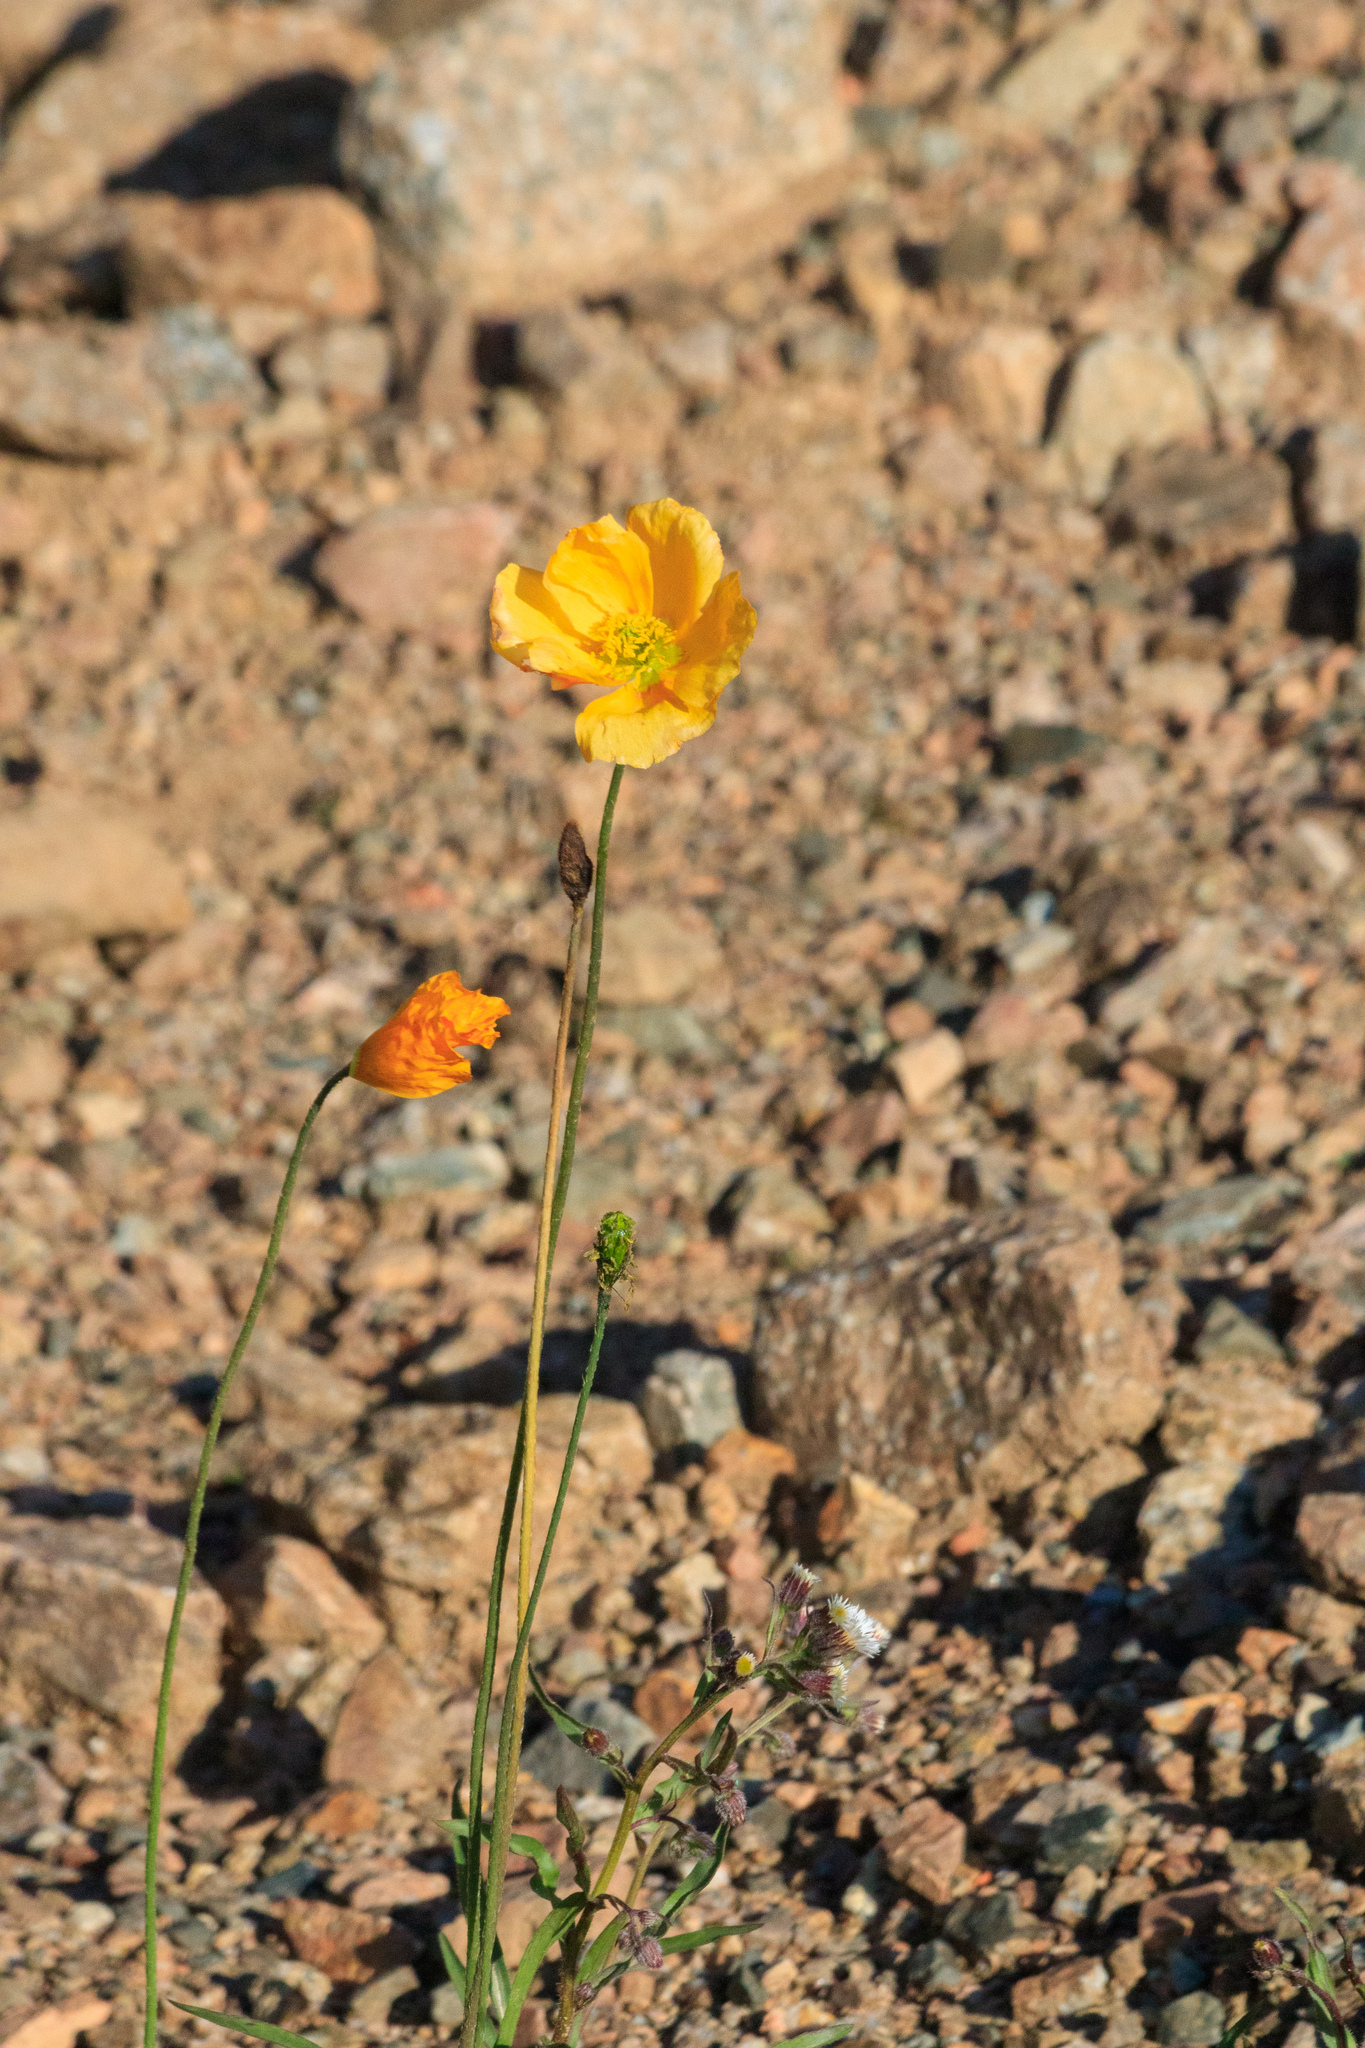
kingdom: Plantae
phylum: Tracheophyta
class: Magnoliopsida
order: Ranunculales
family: Papaveraceae
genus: Oreomecon
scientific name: Oreomecon
